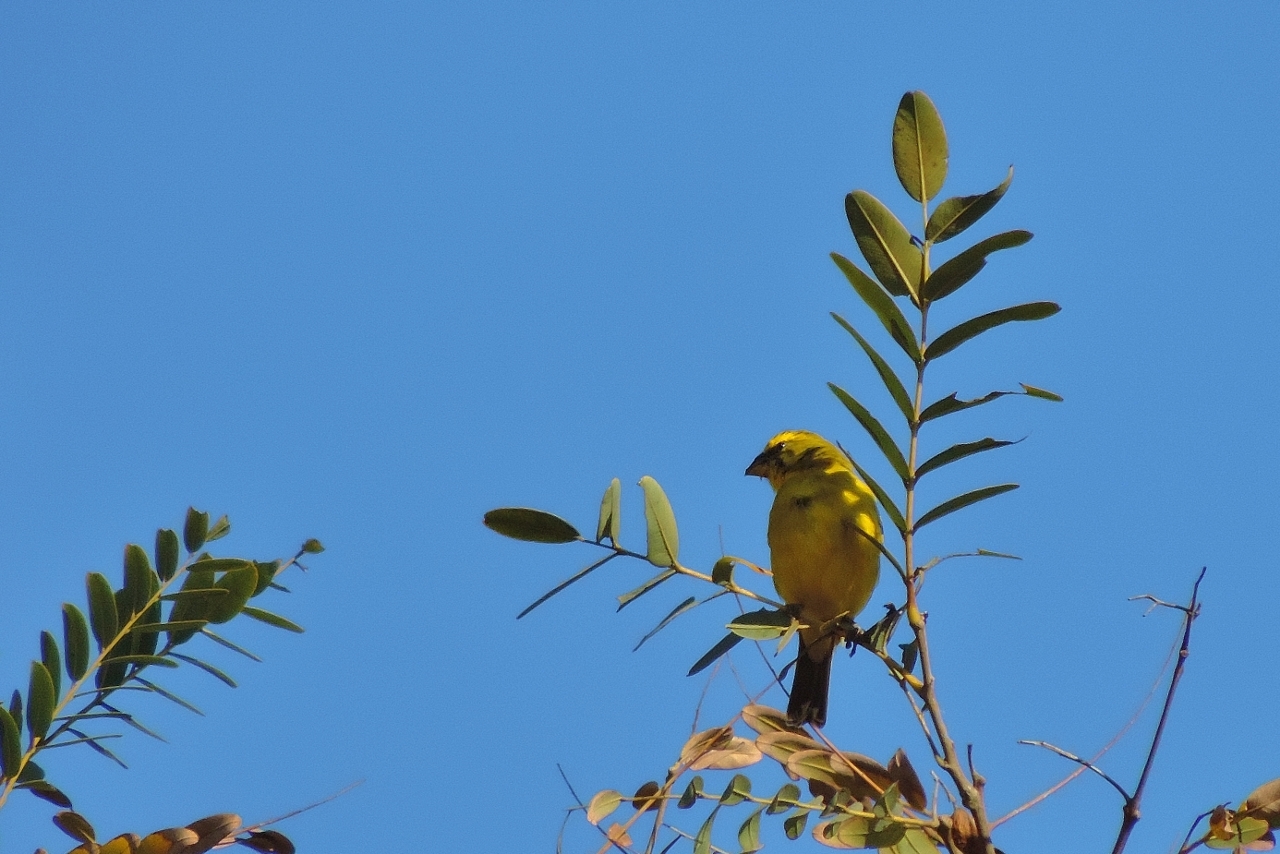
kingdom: Animalia
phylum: Chordata
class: Aves
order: Passeriformes
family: Fringillidae
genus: Crithagra
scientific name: Crithagra sulphurata
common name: Brimstone canary
